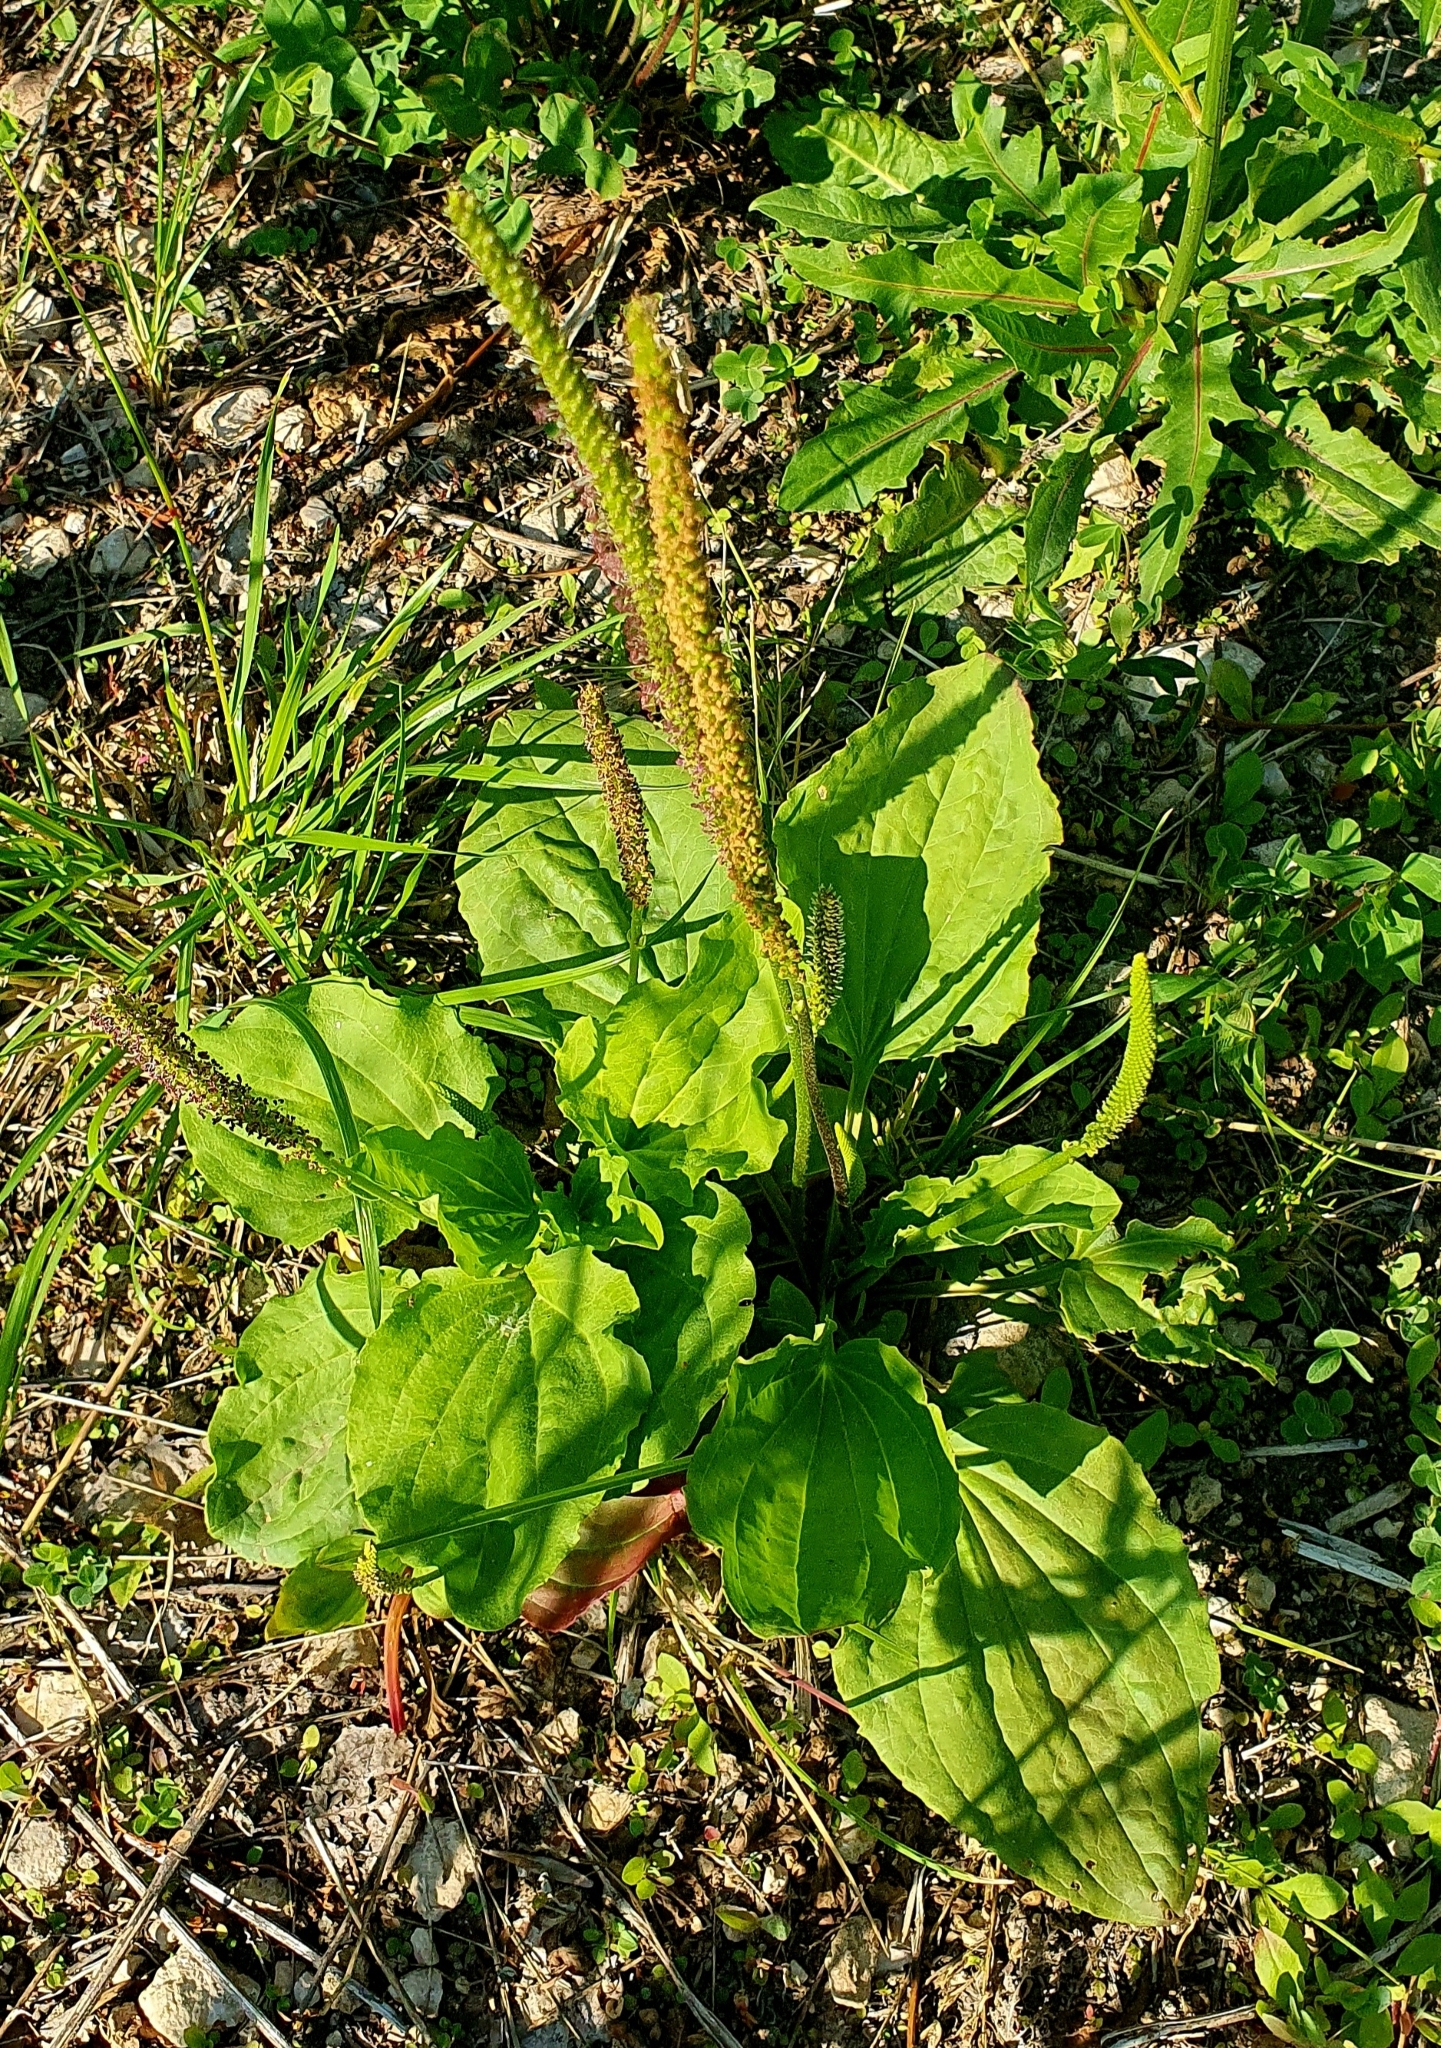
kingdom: Plantae
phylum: Tracheophyta
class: Magnoliopsida
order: Lamiales
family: Plantaginaceae
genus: Plantago
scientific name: Plantago major
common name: Common plantain
